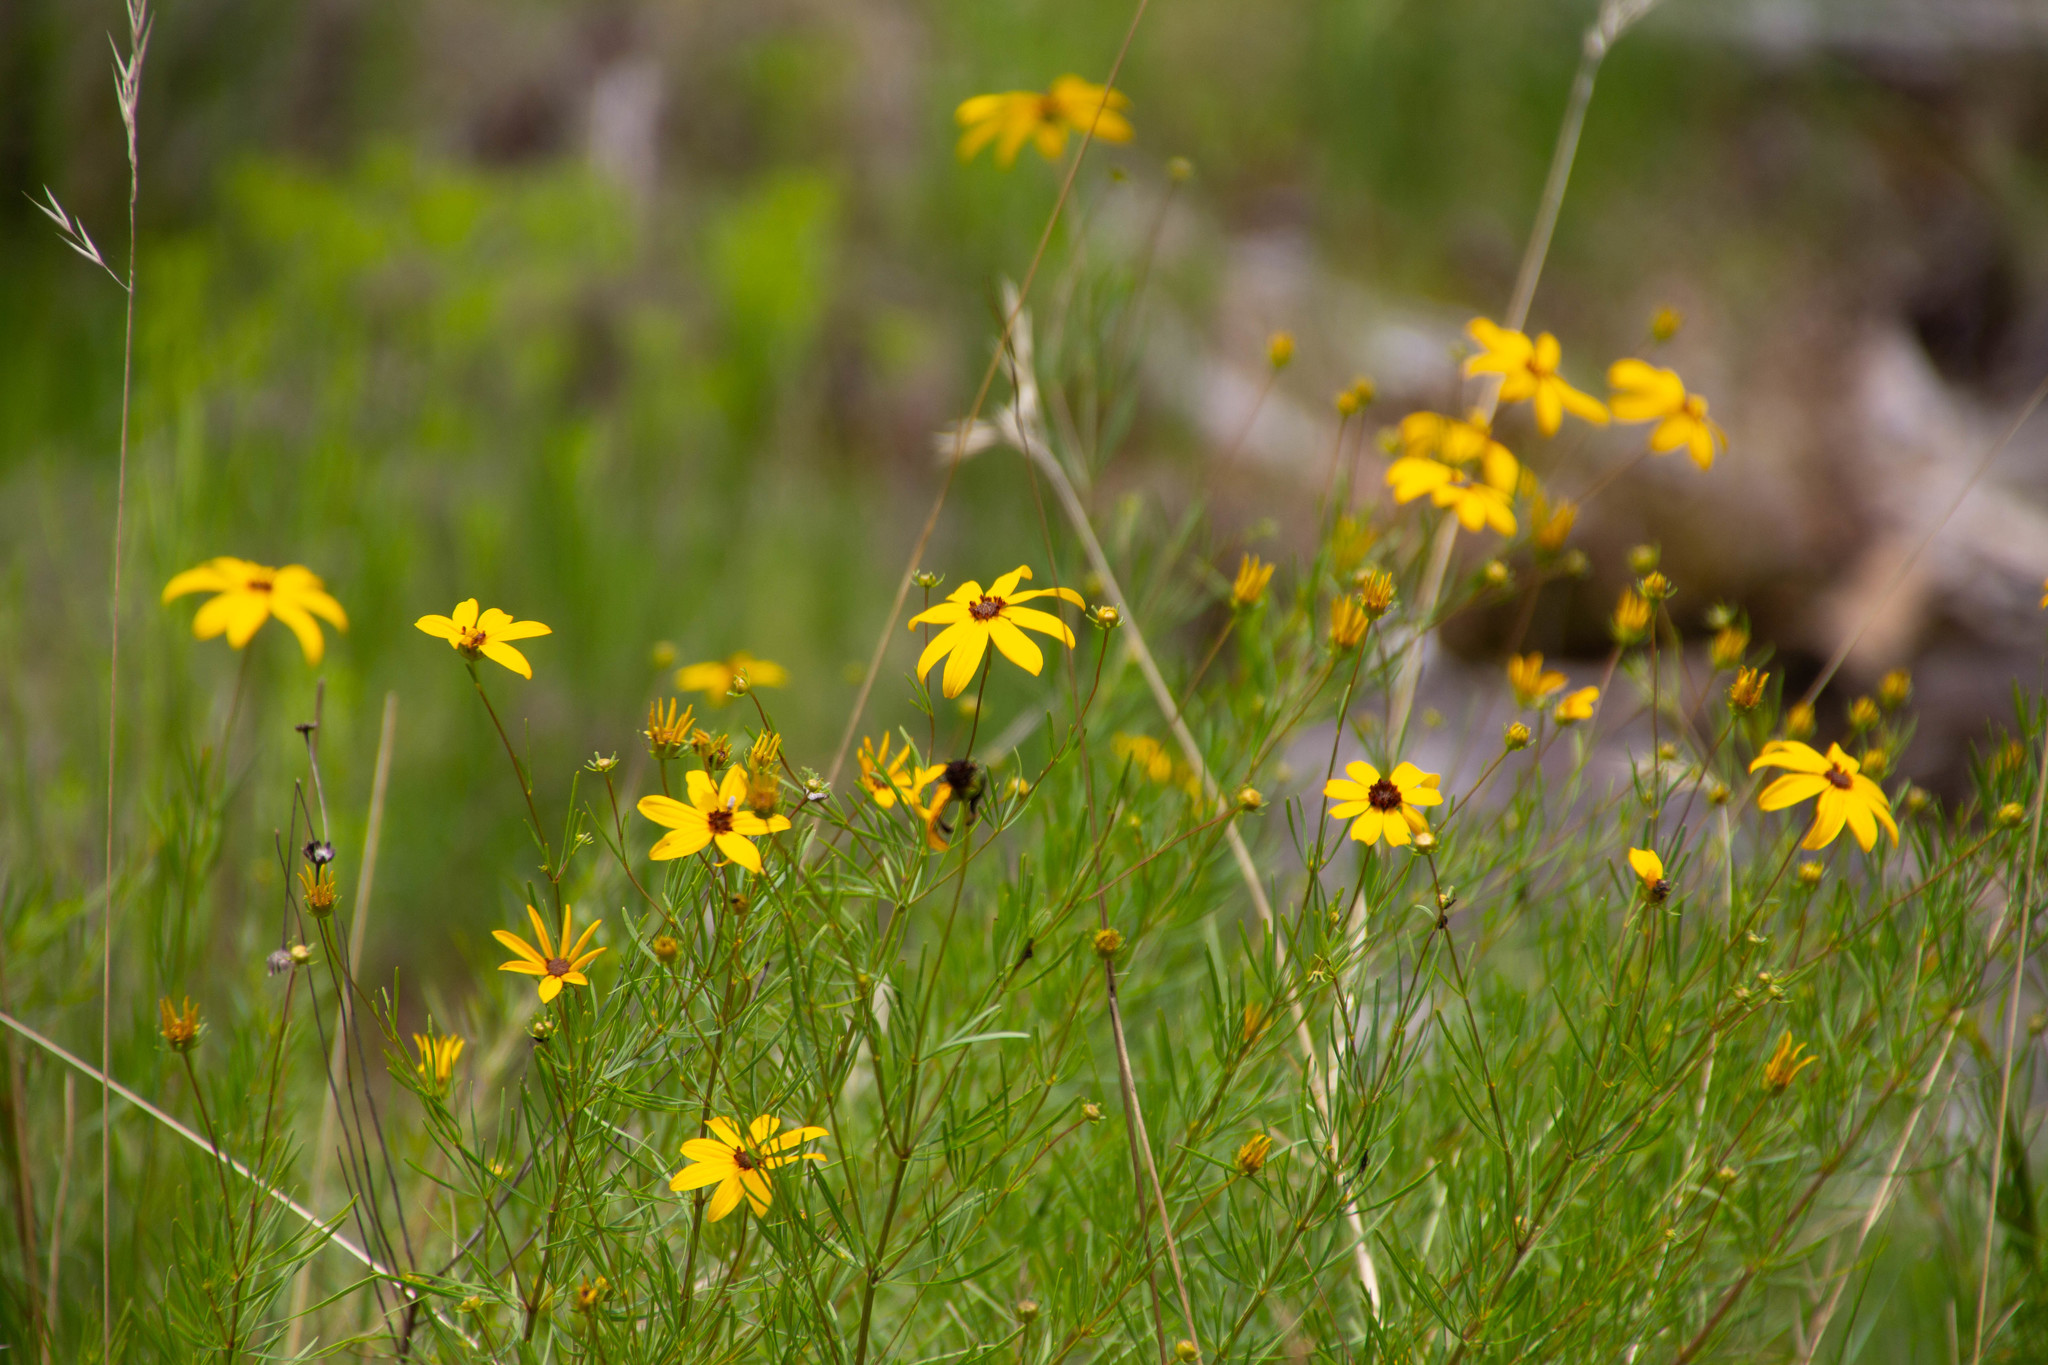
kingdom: Plantae
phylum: Tracheophyta
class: Magnoliopsida
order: Asterales
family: Asteraceae
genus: Coreopsis
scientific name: Coreopsis pulchra
